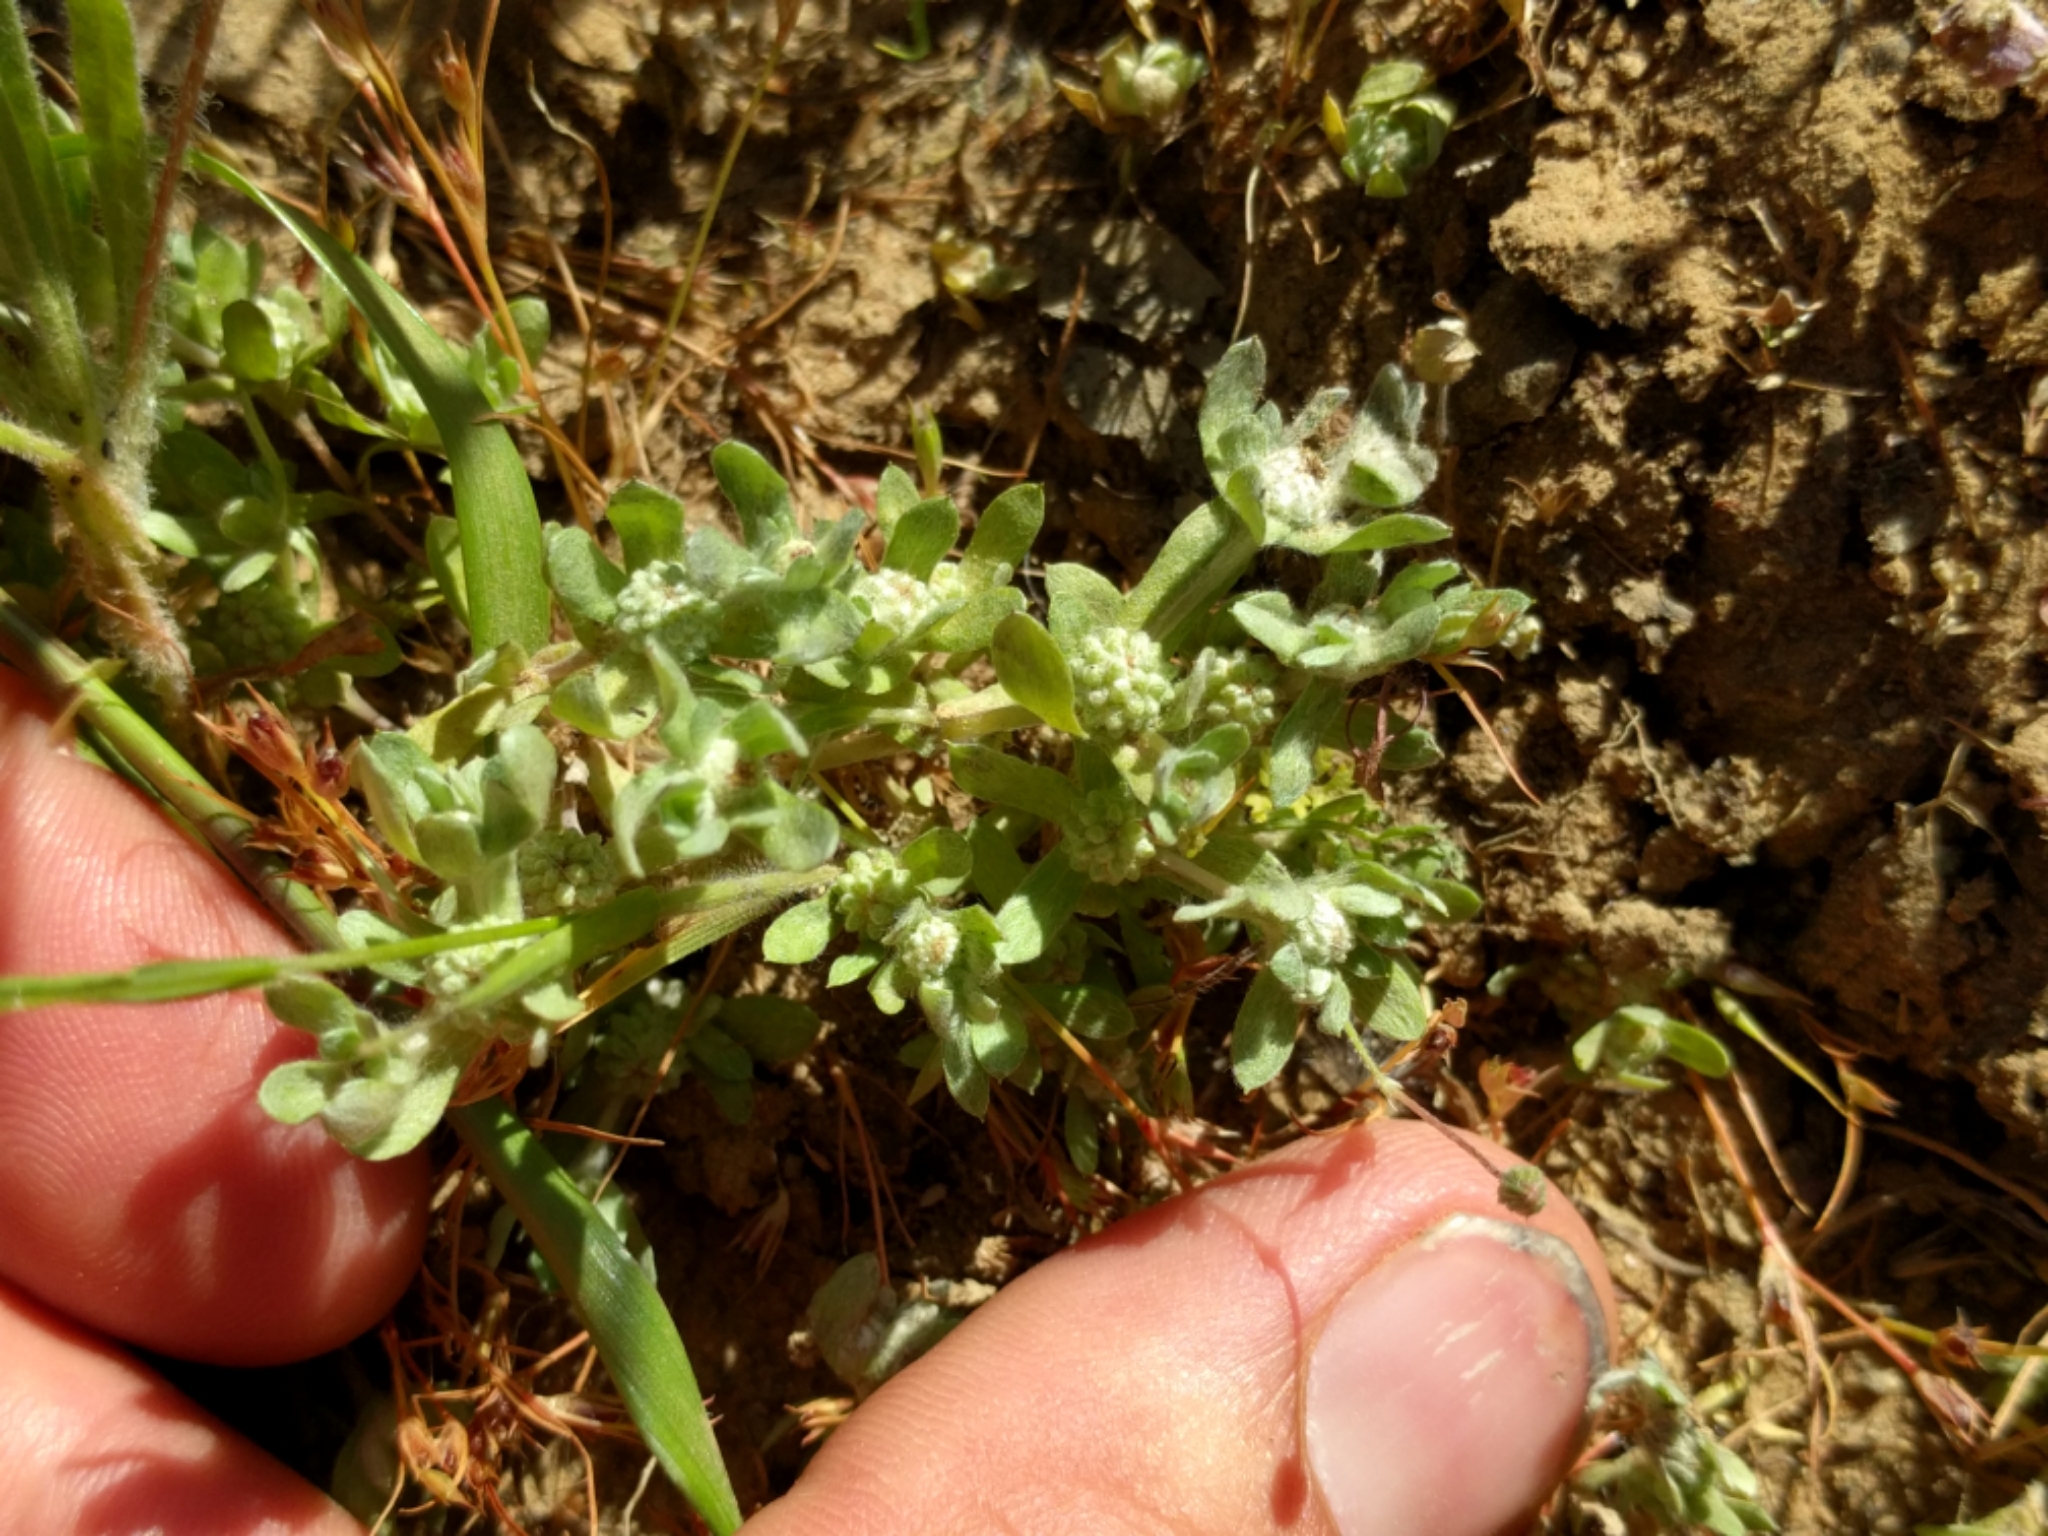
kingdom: Plantae
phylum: Tracheophyta
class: Magnoliopsida
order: Asterales
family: Asteraceae
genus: Psilocarphus
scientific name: Psilocarphus tenellus
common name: Slender woolly-marbles
